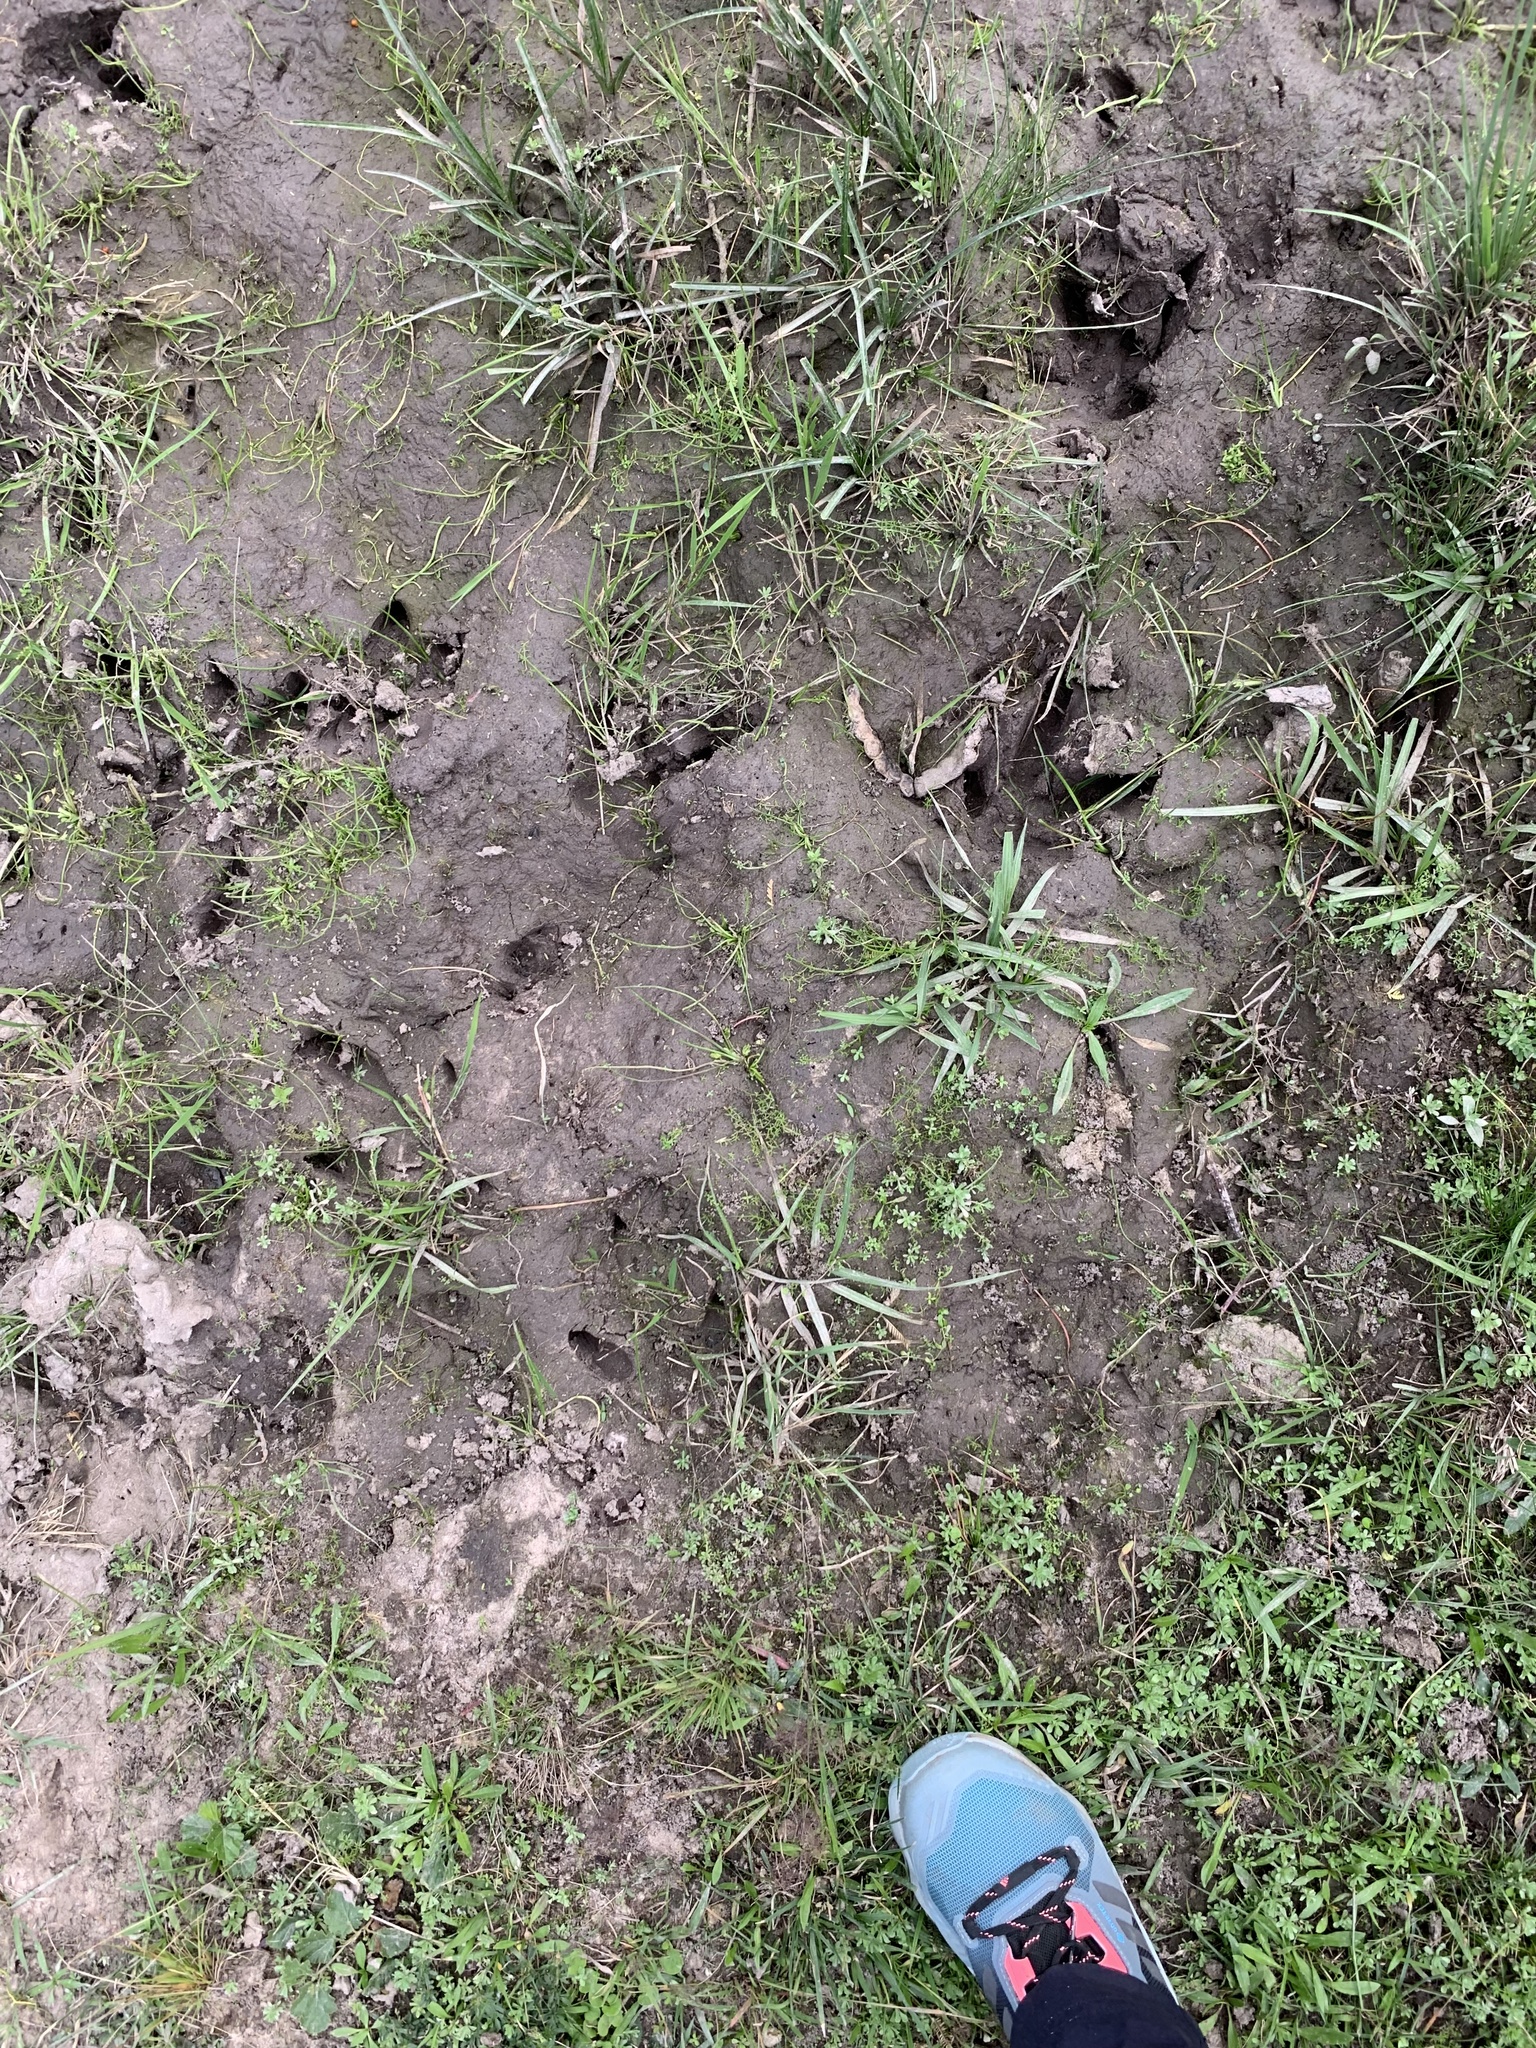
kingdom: Animalia
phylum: Chordata
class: Aves
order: Rheiformes
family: Rheidae
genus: Rhea
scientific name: Rhea americana
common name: Greater rhea
